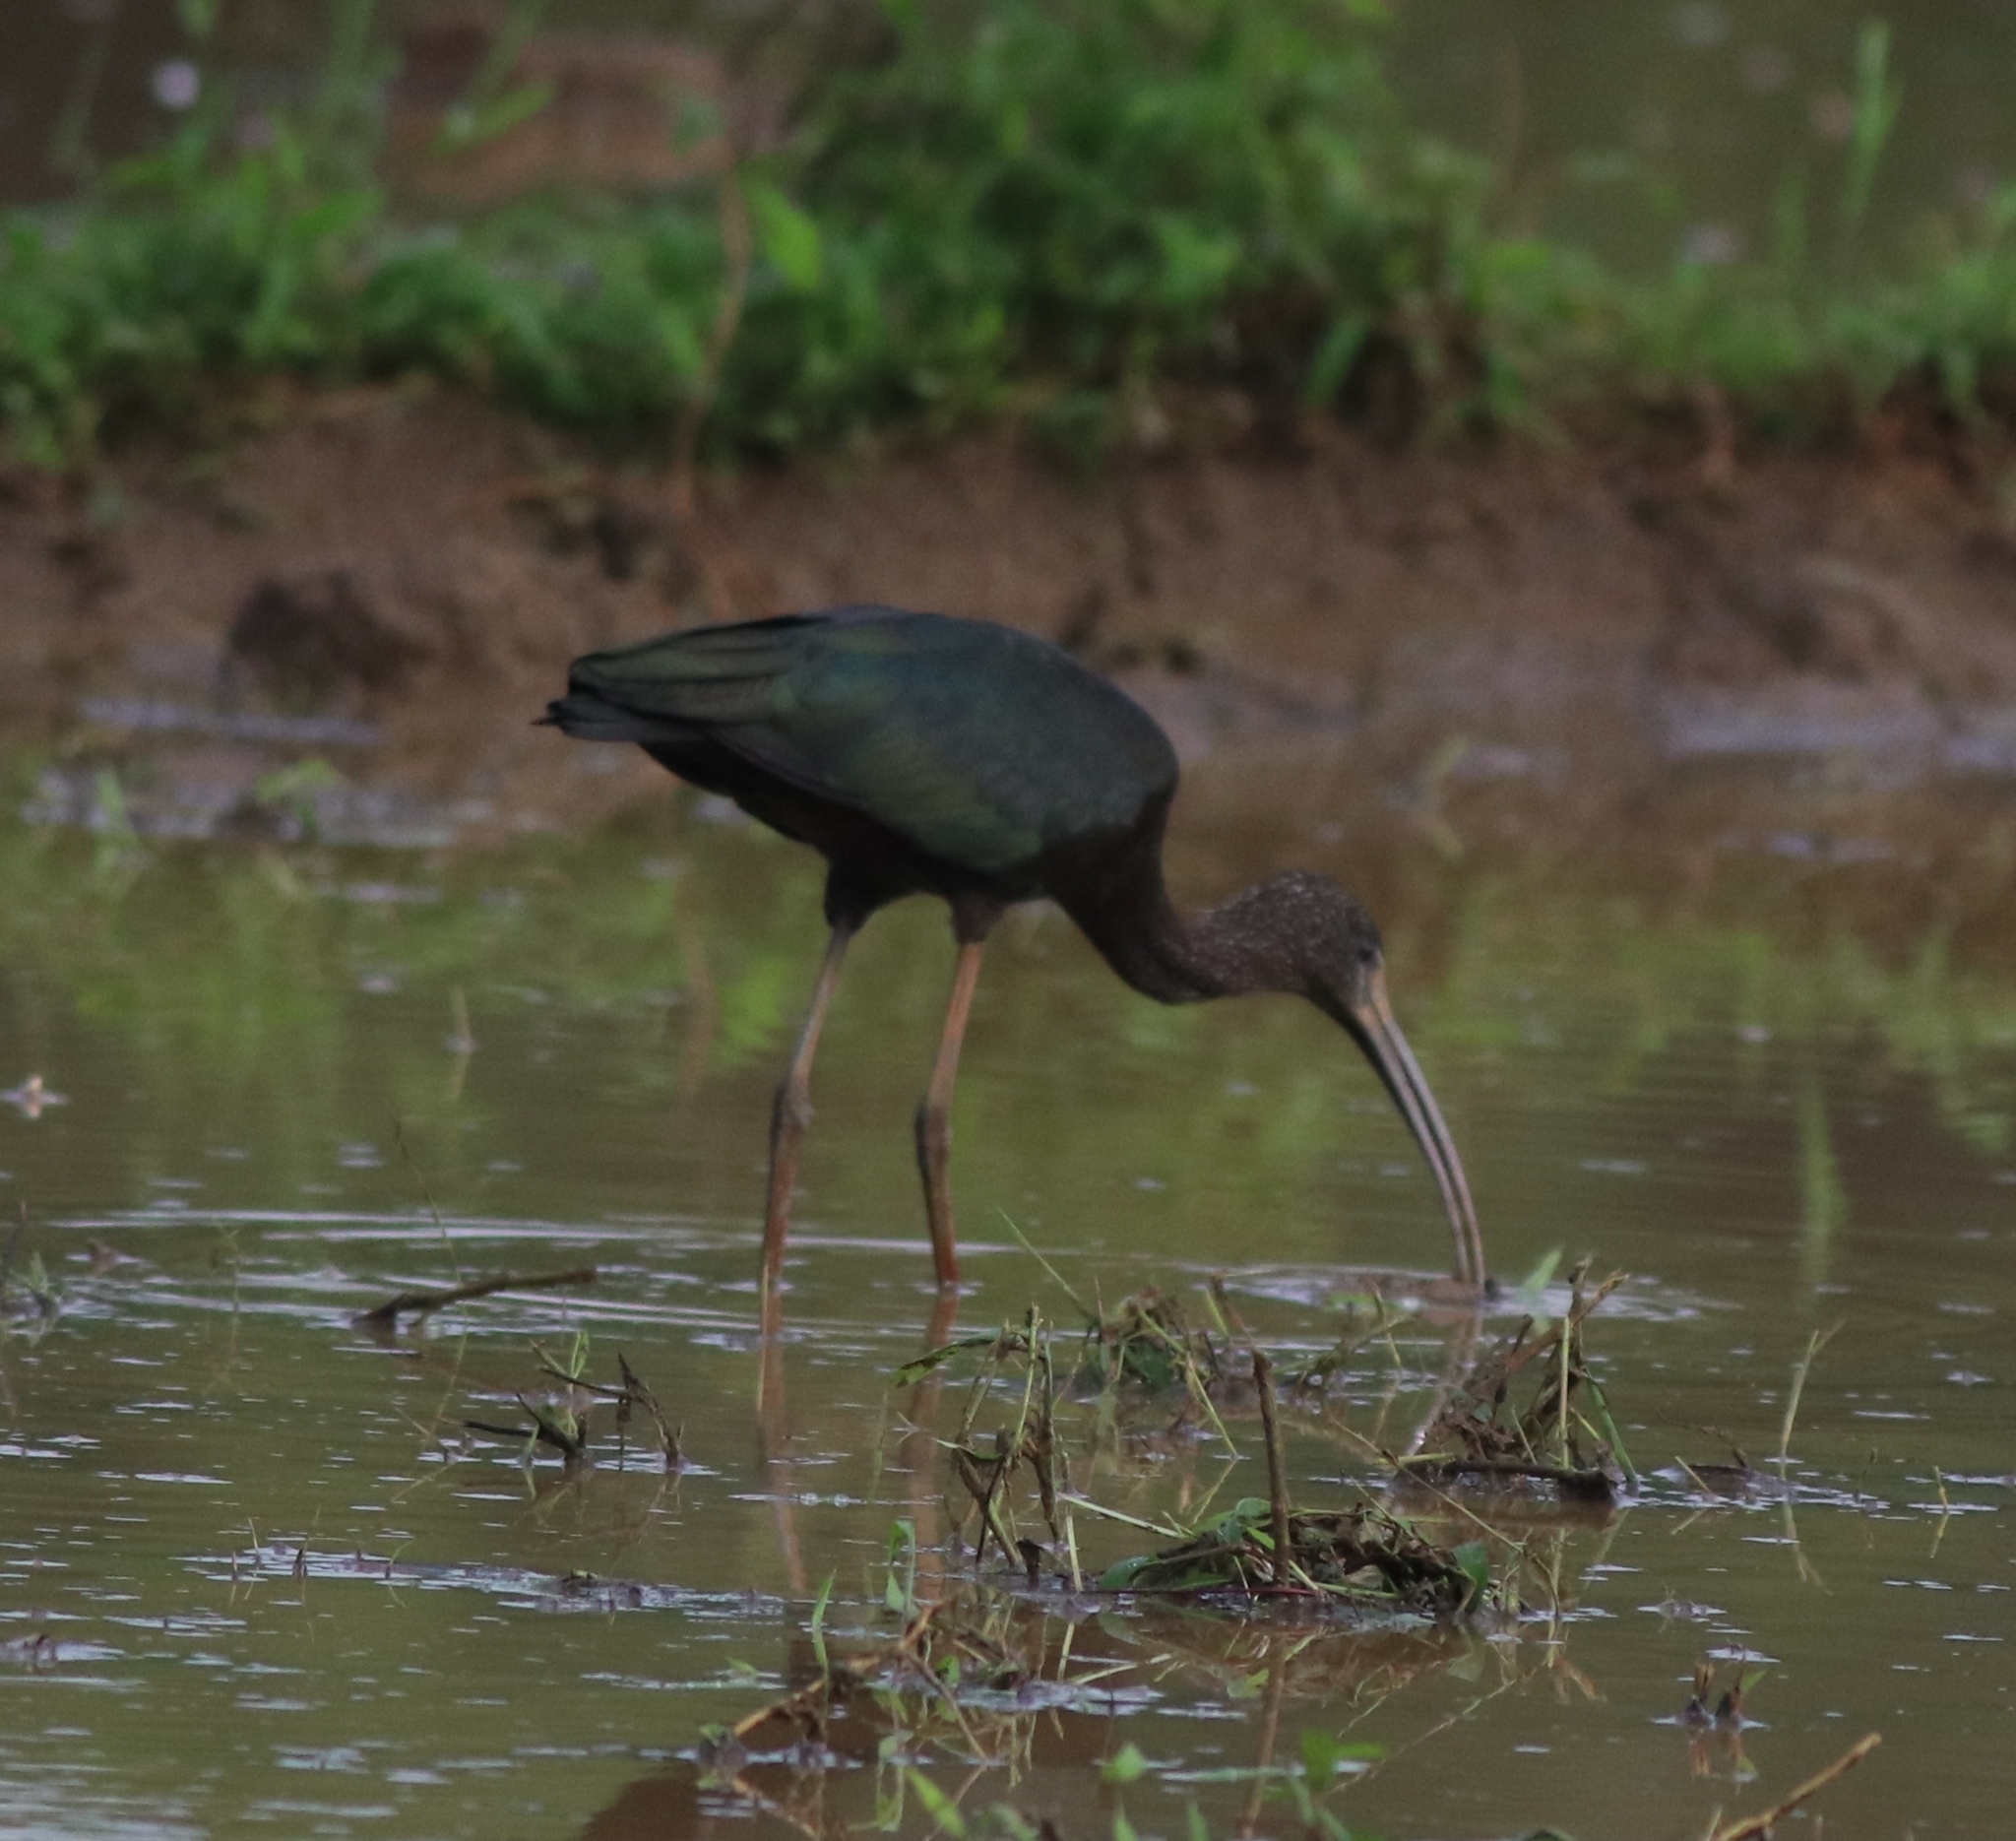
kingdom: Animalia
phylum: Chordata
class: Aves
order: Pelecaniformes
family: Threskiornithidae
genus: Plegadis
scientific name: Plegadis falcinellus
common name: Glossy ibis
